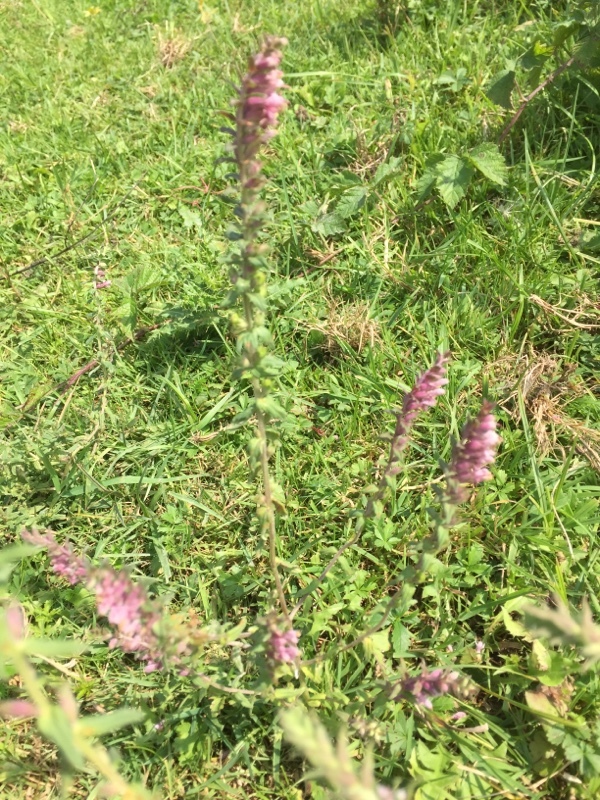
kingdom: Plantae
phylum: Tracheophyta
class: Magnoliopsida
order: Lamiales
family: Orobanchaceae
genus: Odontites
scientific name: Odontites vernus
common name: Red bartsia
